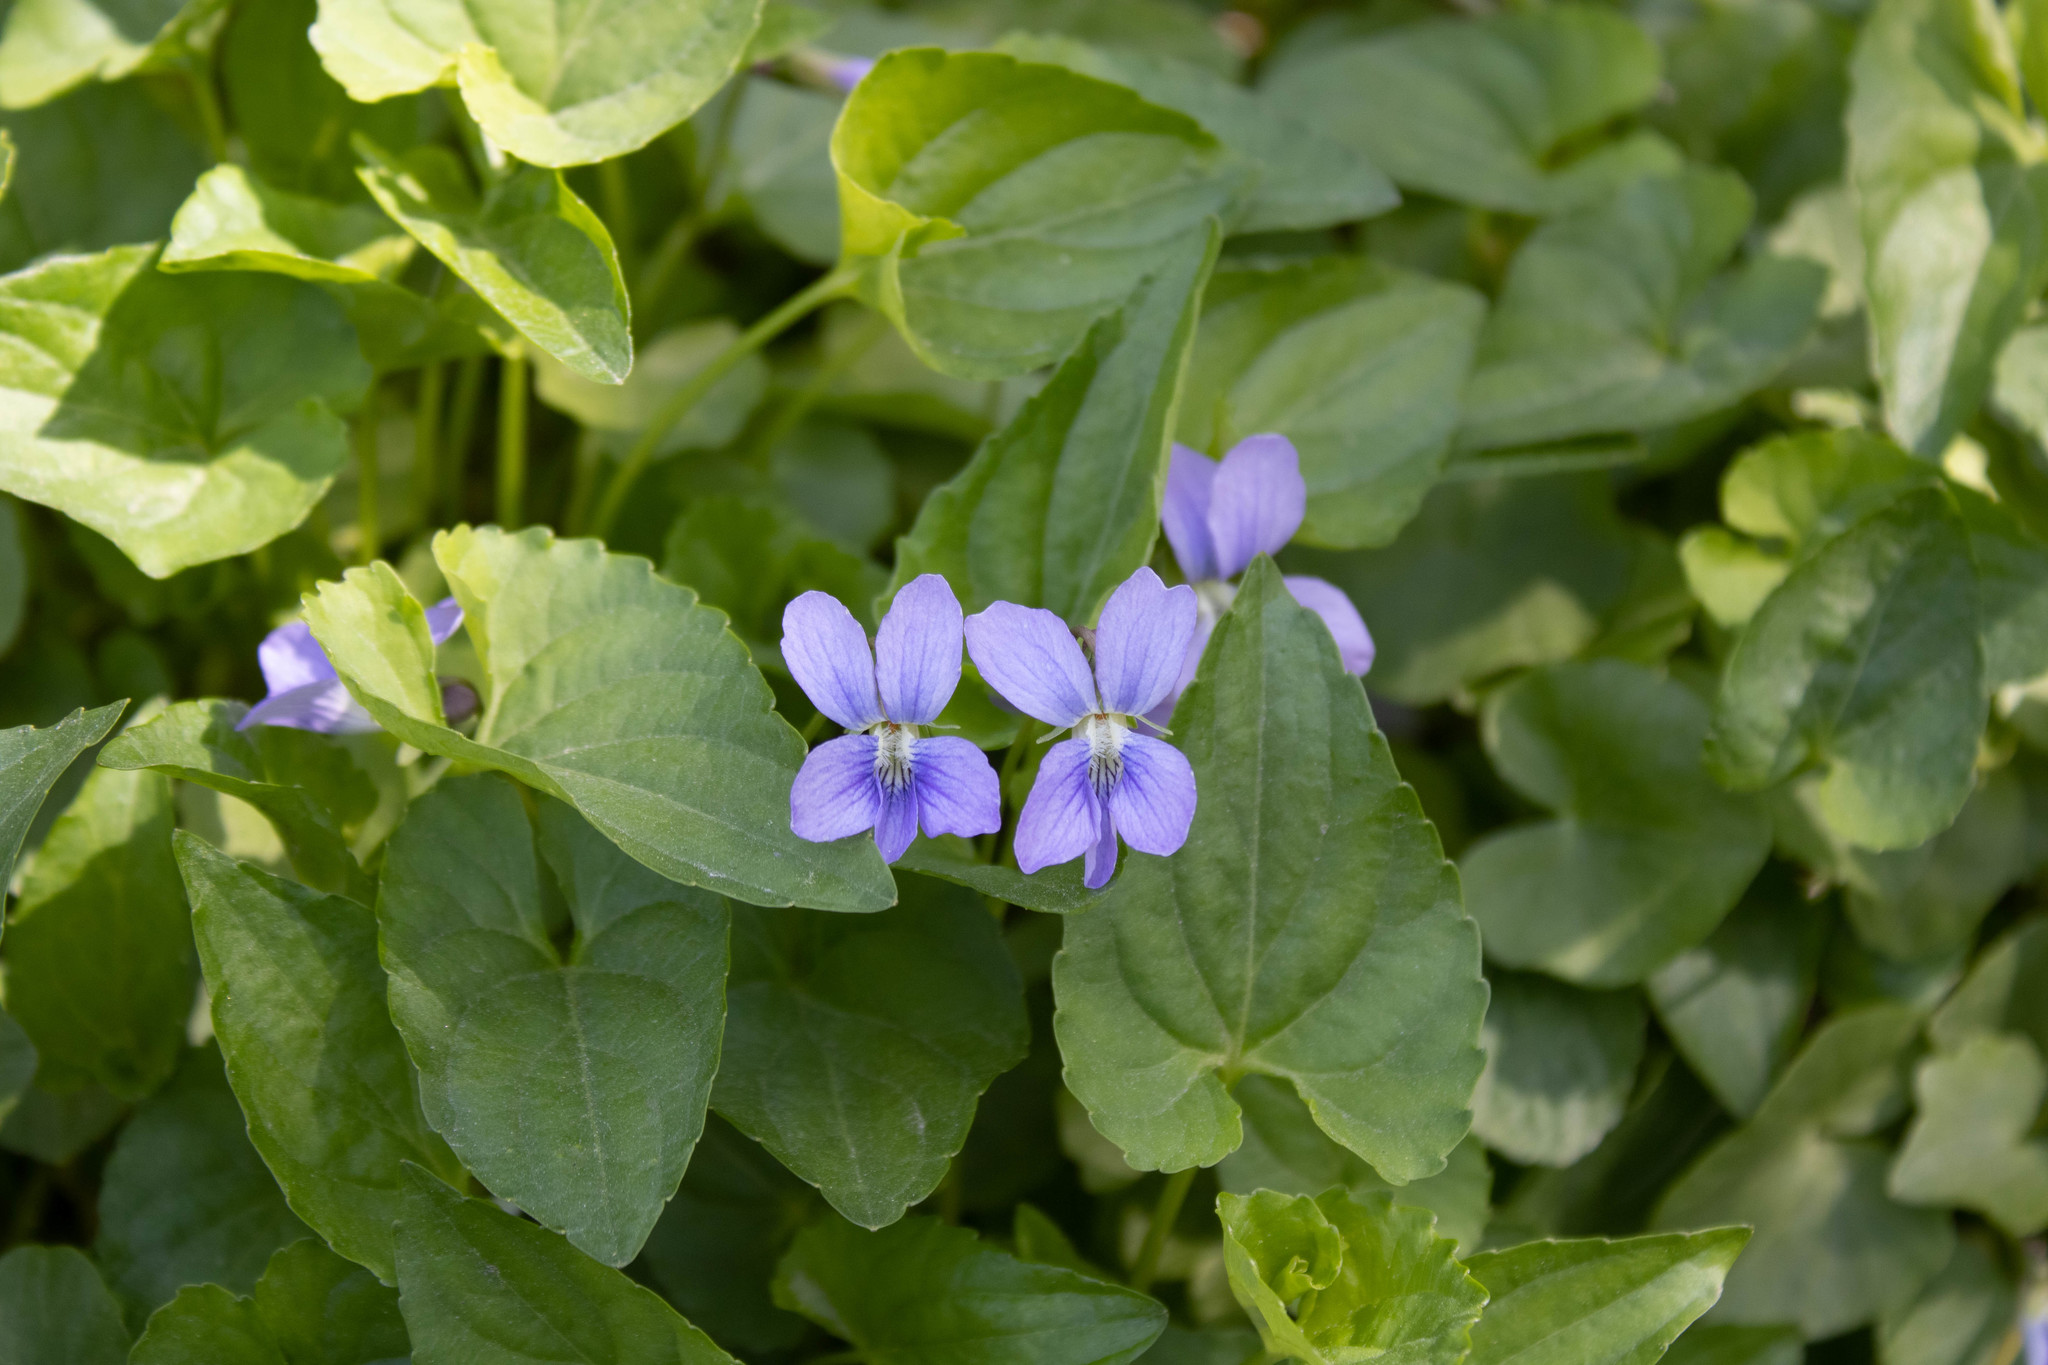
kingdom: Plantae
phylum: Tracheophyta
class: Magnoliopsida
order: Malpighiales
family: Violaceae
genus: Viola
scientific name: Viola sororia
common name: Dooryard violet
